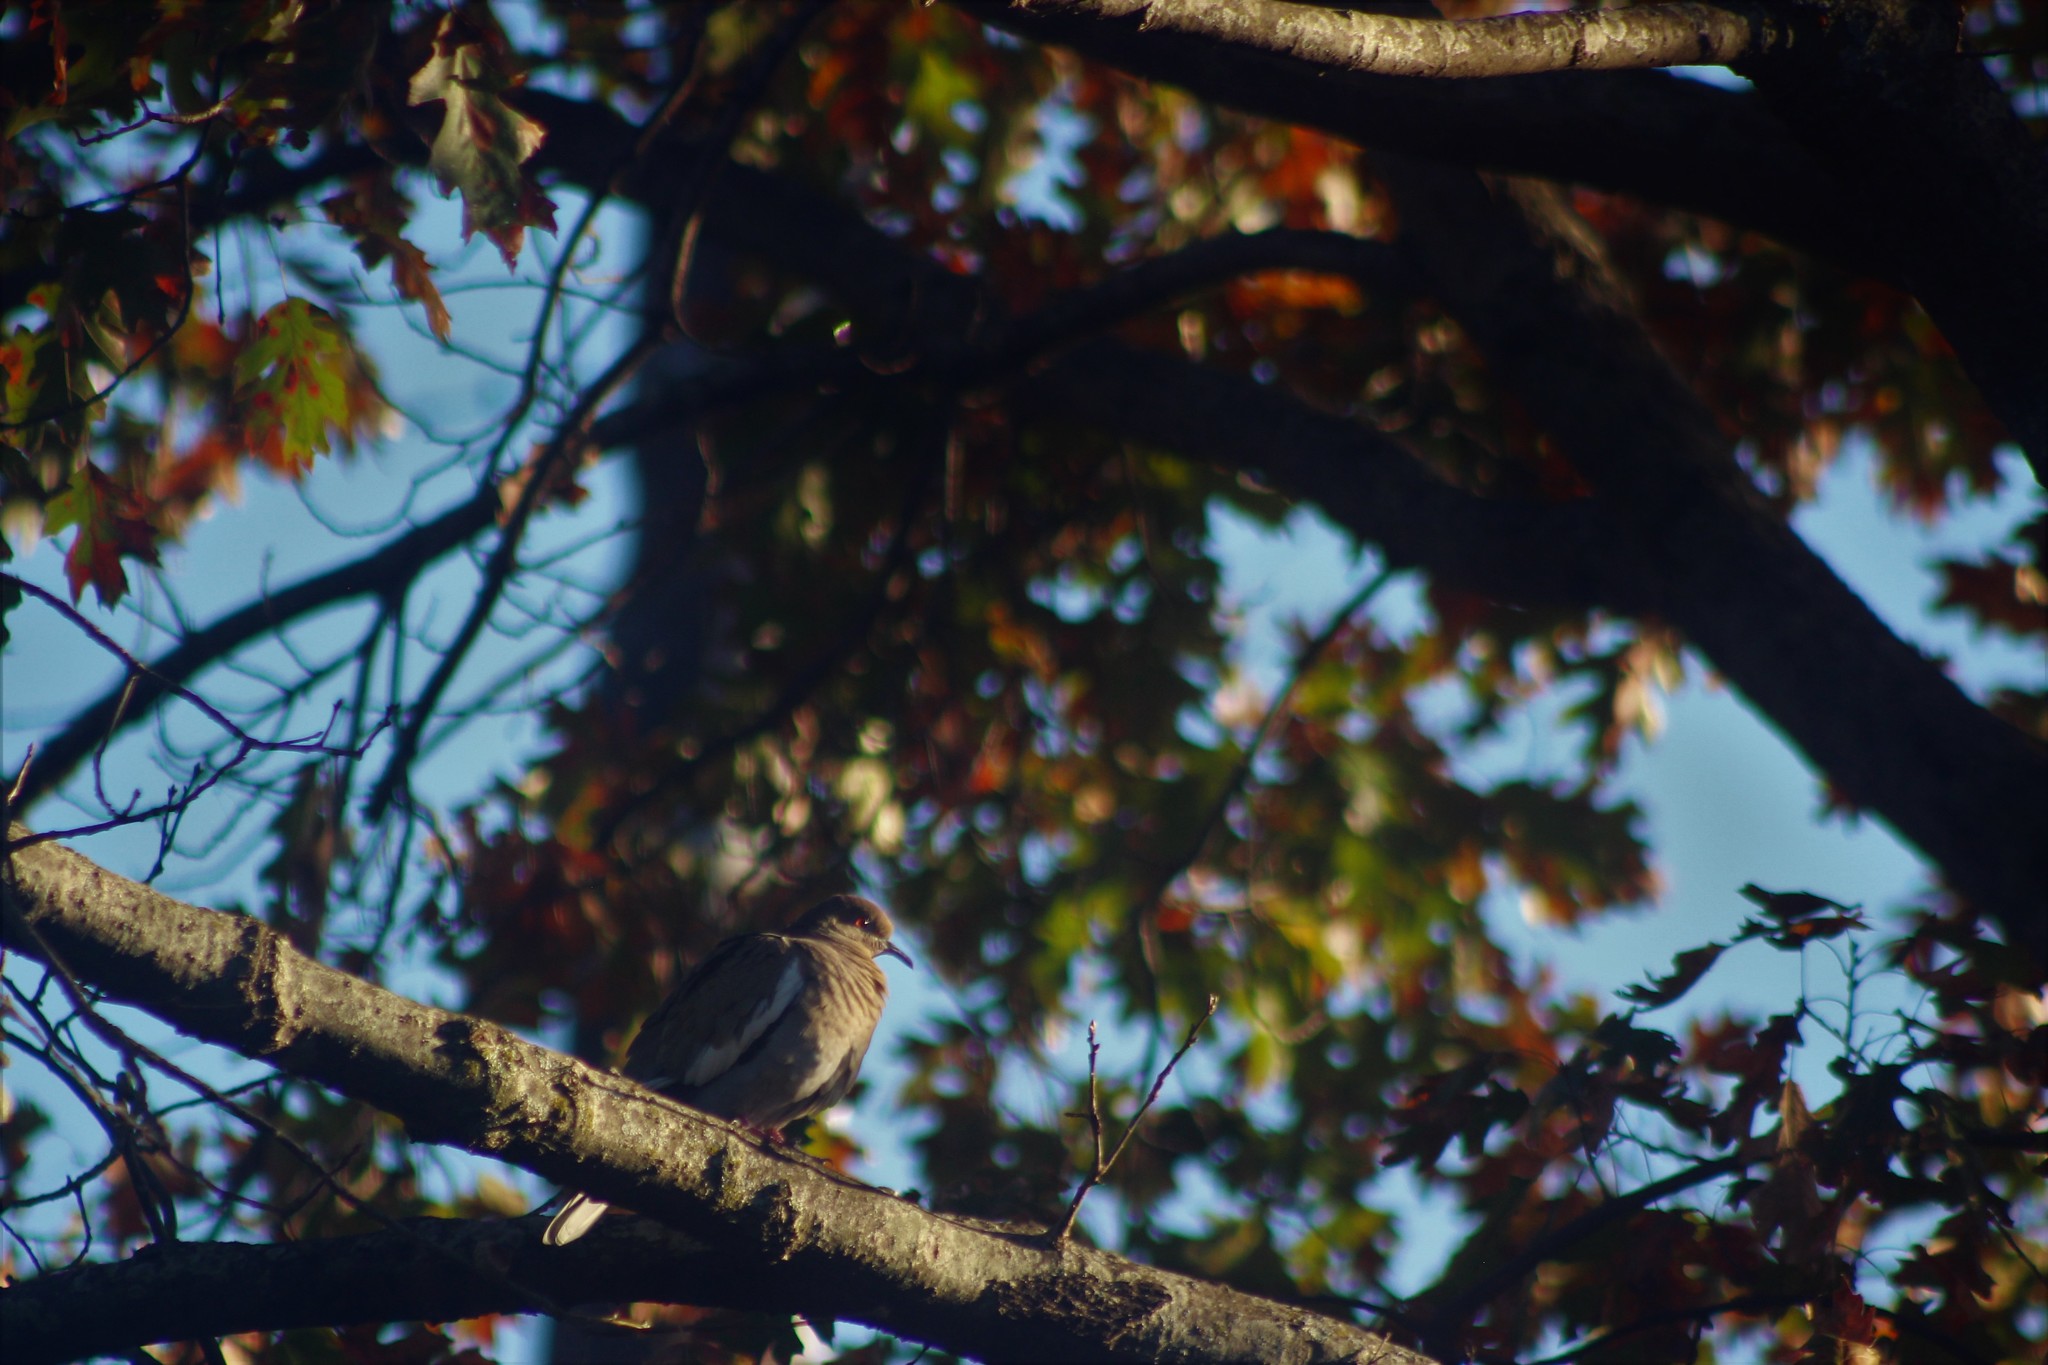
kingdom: Animalia
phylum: Chordata
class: Aves
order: Columbiformes
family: Columbidae
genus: Zenaida
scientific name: Zenaida asiatica
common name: White-winged dove
